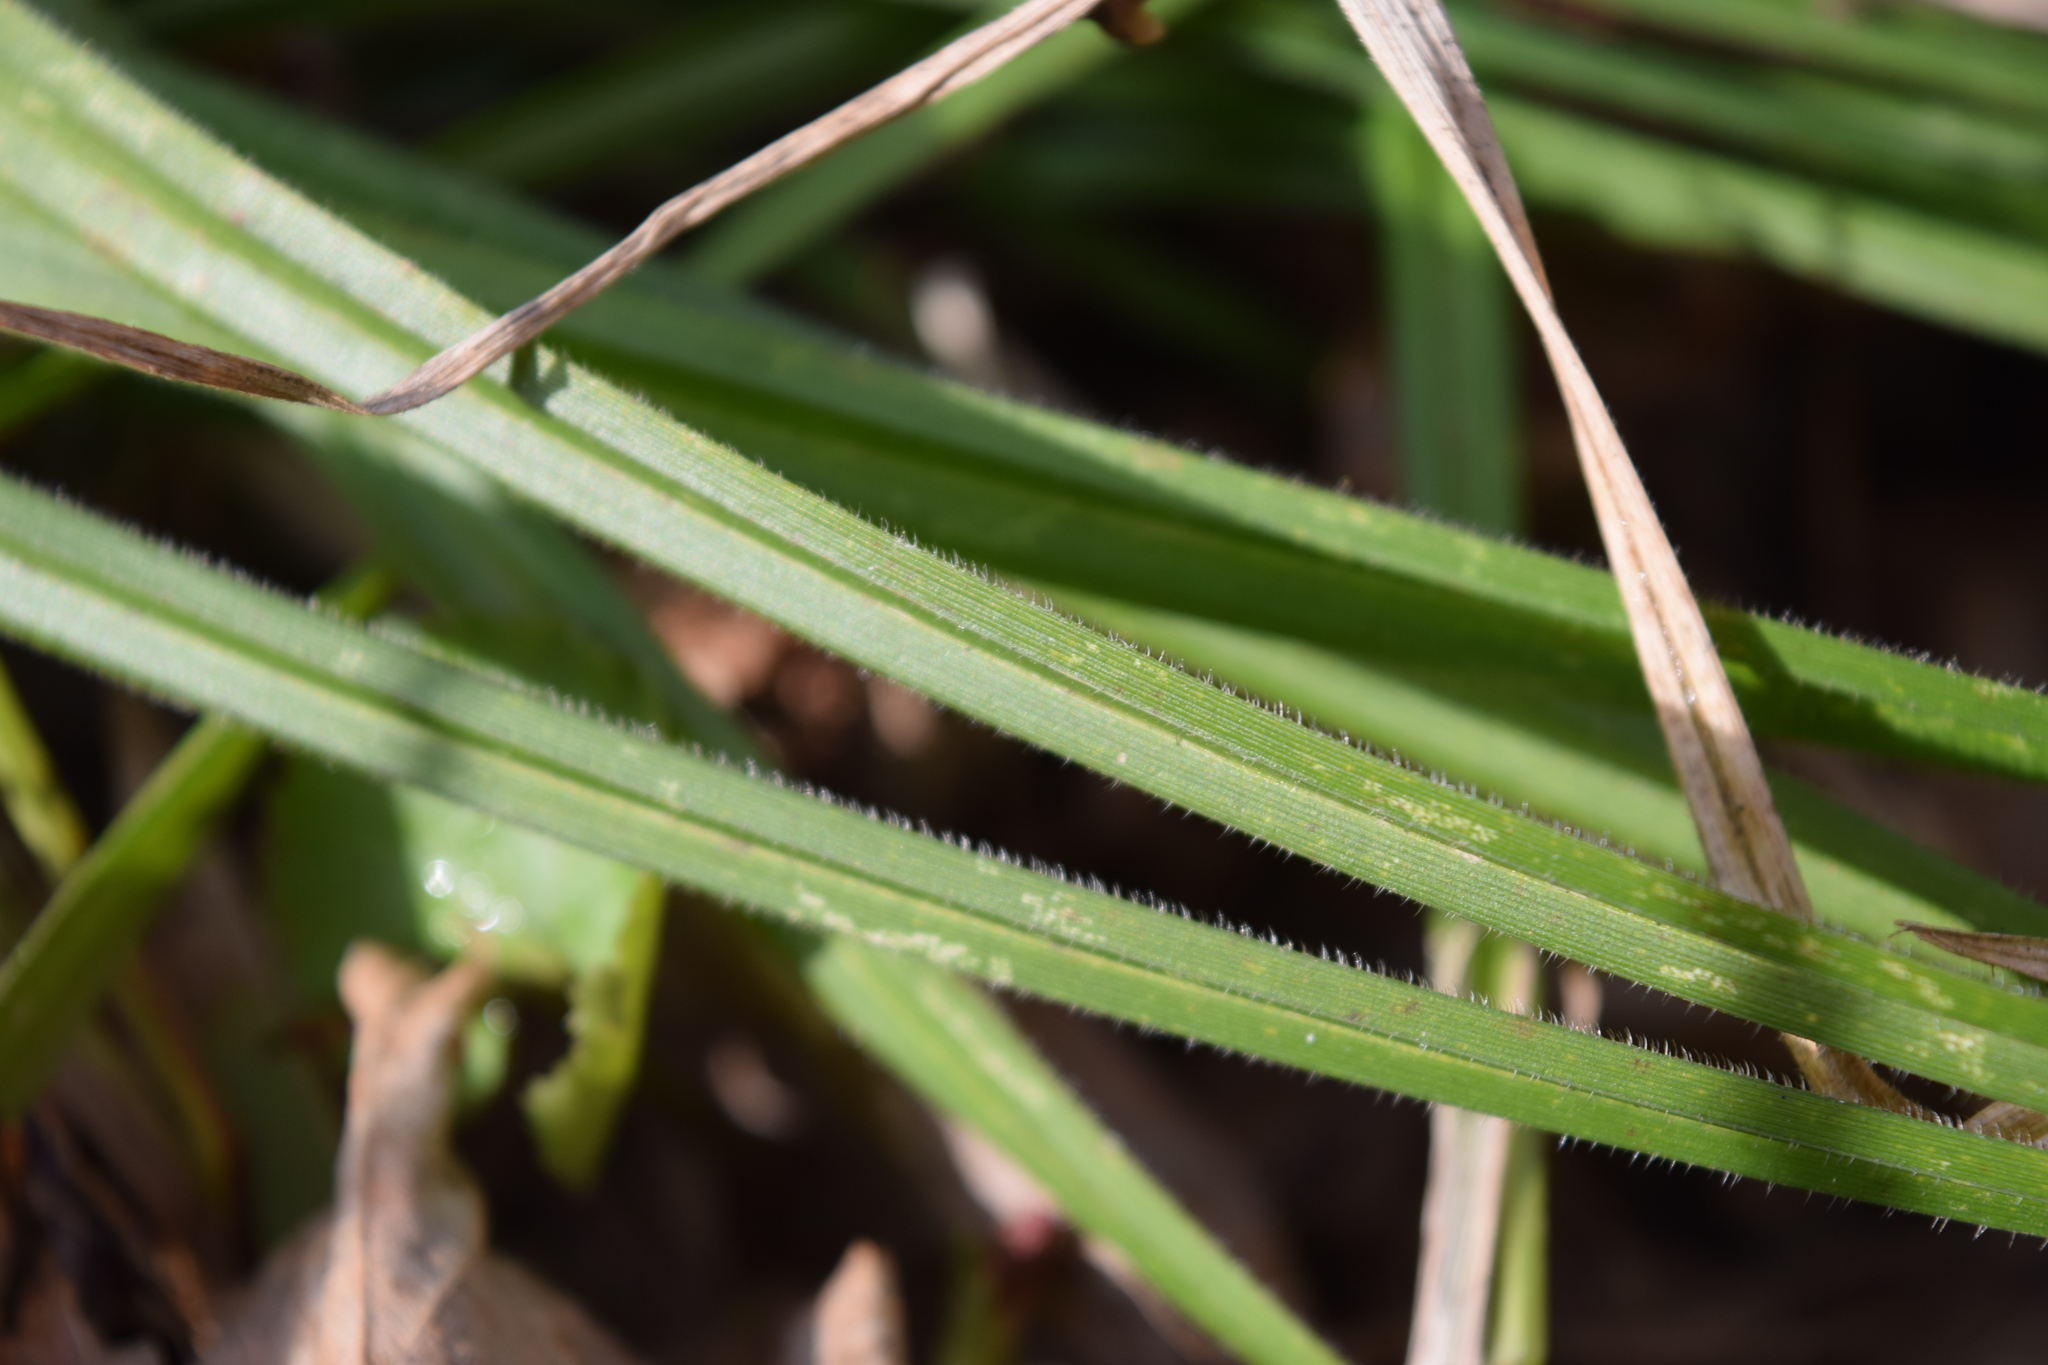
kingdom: Plantae
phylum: Tracheophyta
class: Liliopsida
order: Poales
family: Cyperaceae
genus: Carex
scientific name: Carex pilosa
